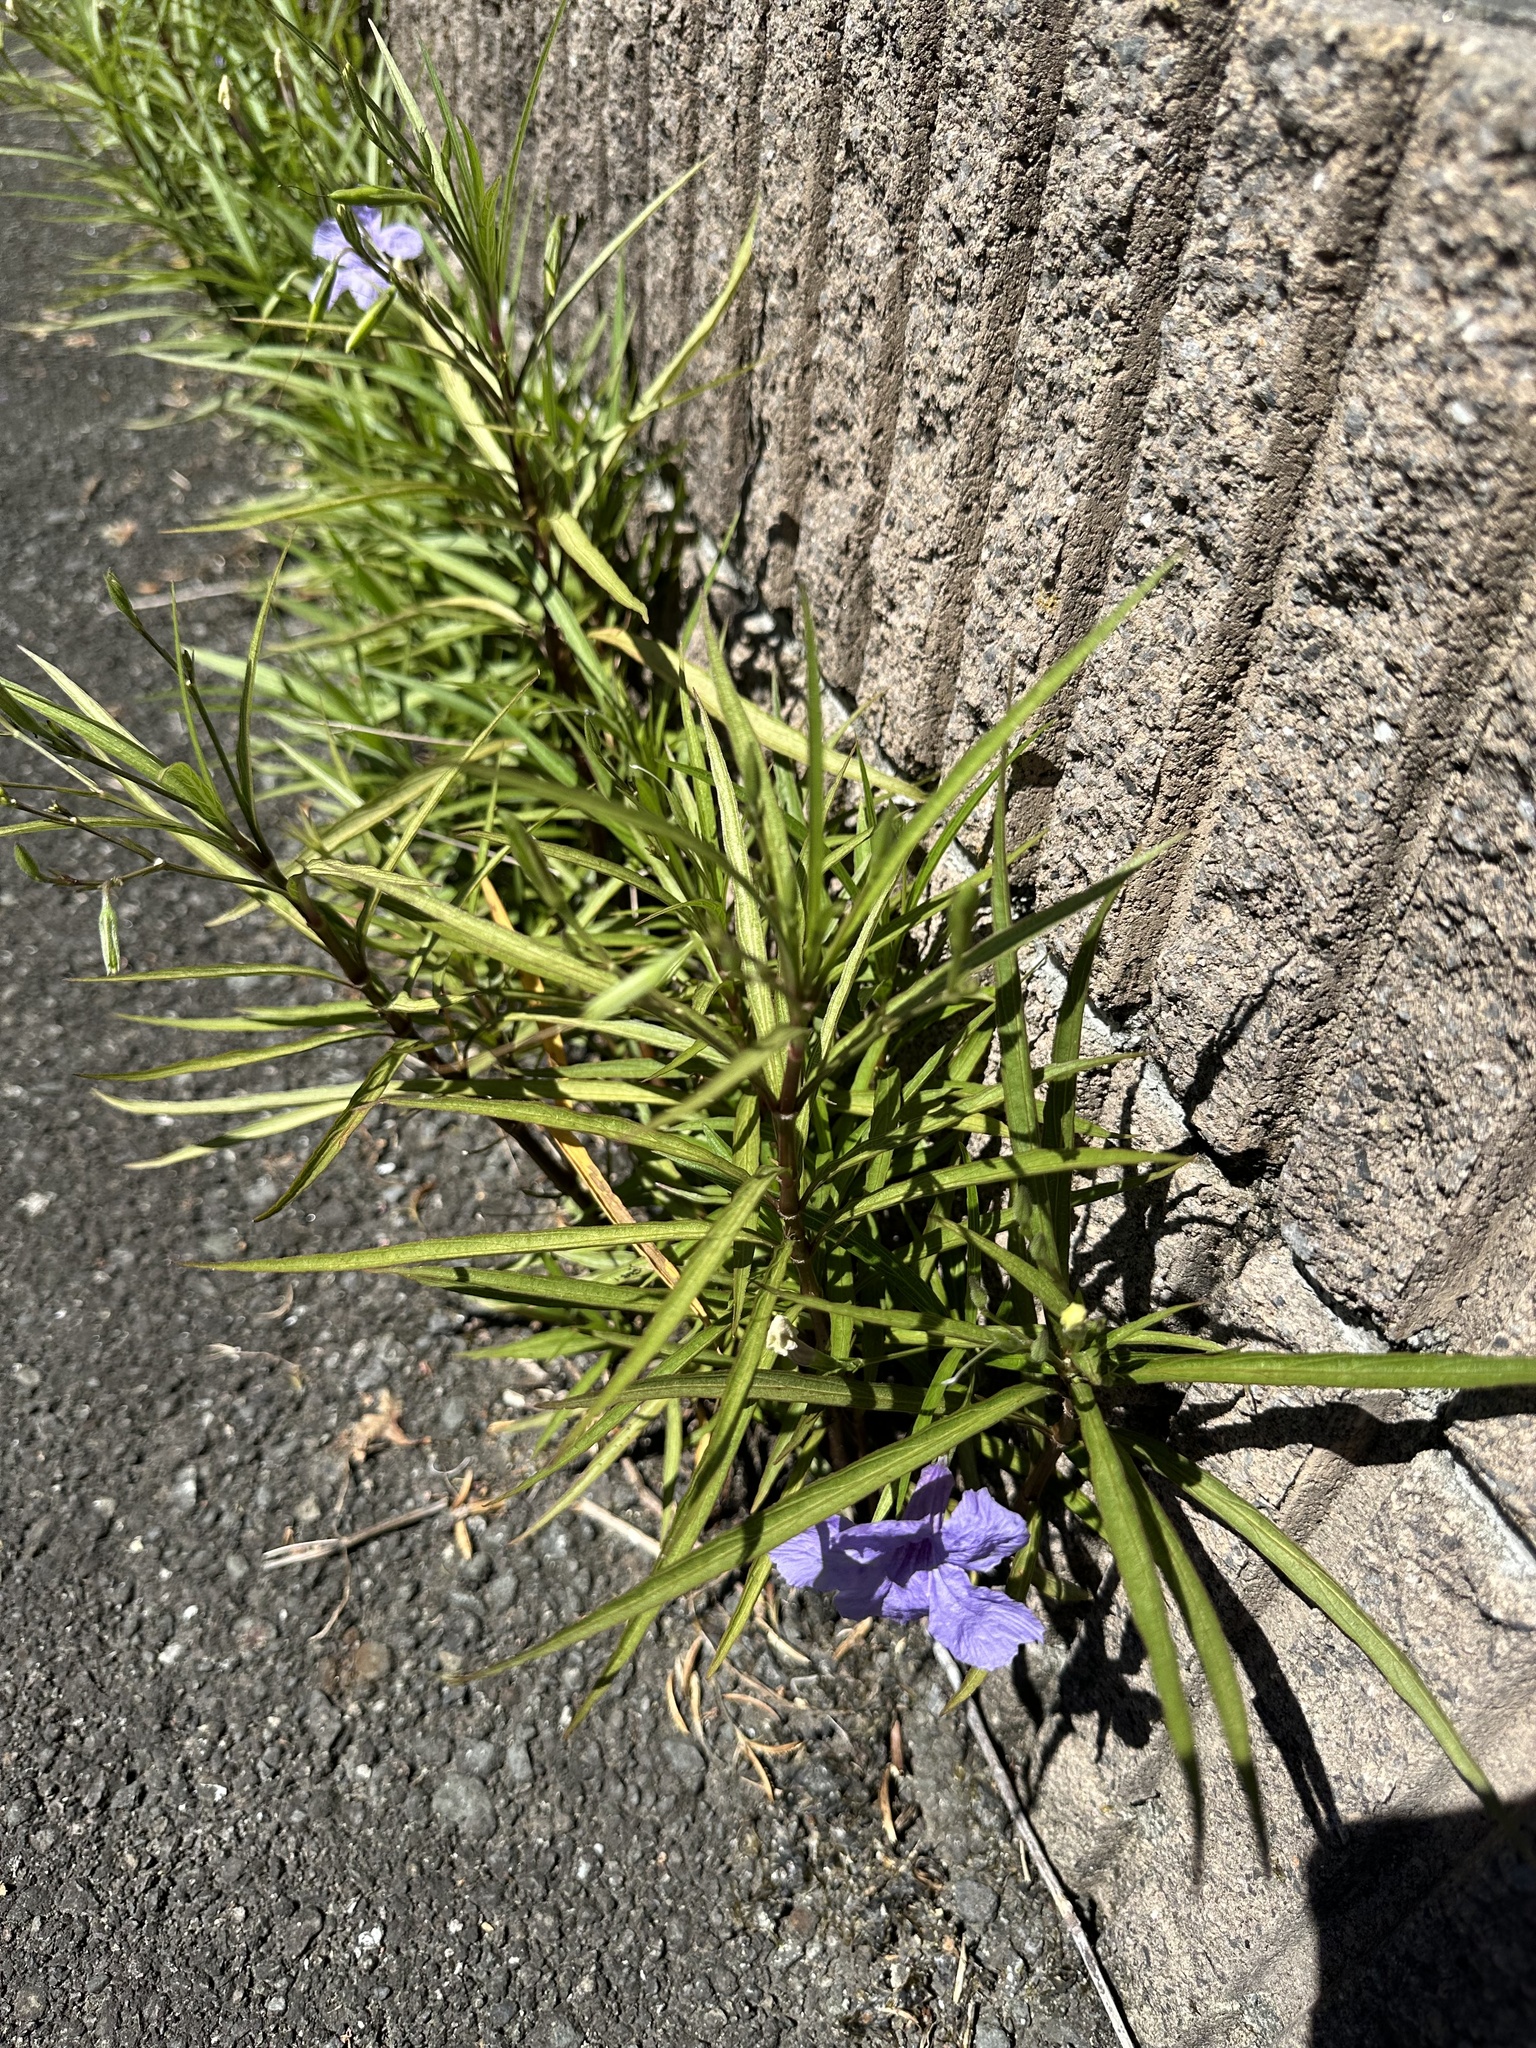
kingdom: Plantae
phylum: Tracheophyta
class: Magnoliopsida
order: Lamiales
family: Acanthaceae
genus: Ruellia
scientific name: Ruellia simplex
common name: Softseed wild petunia
